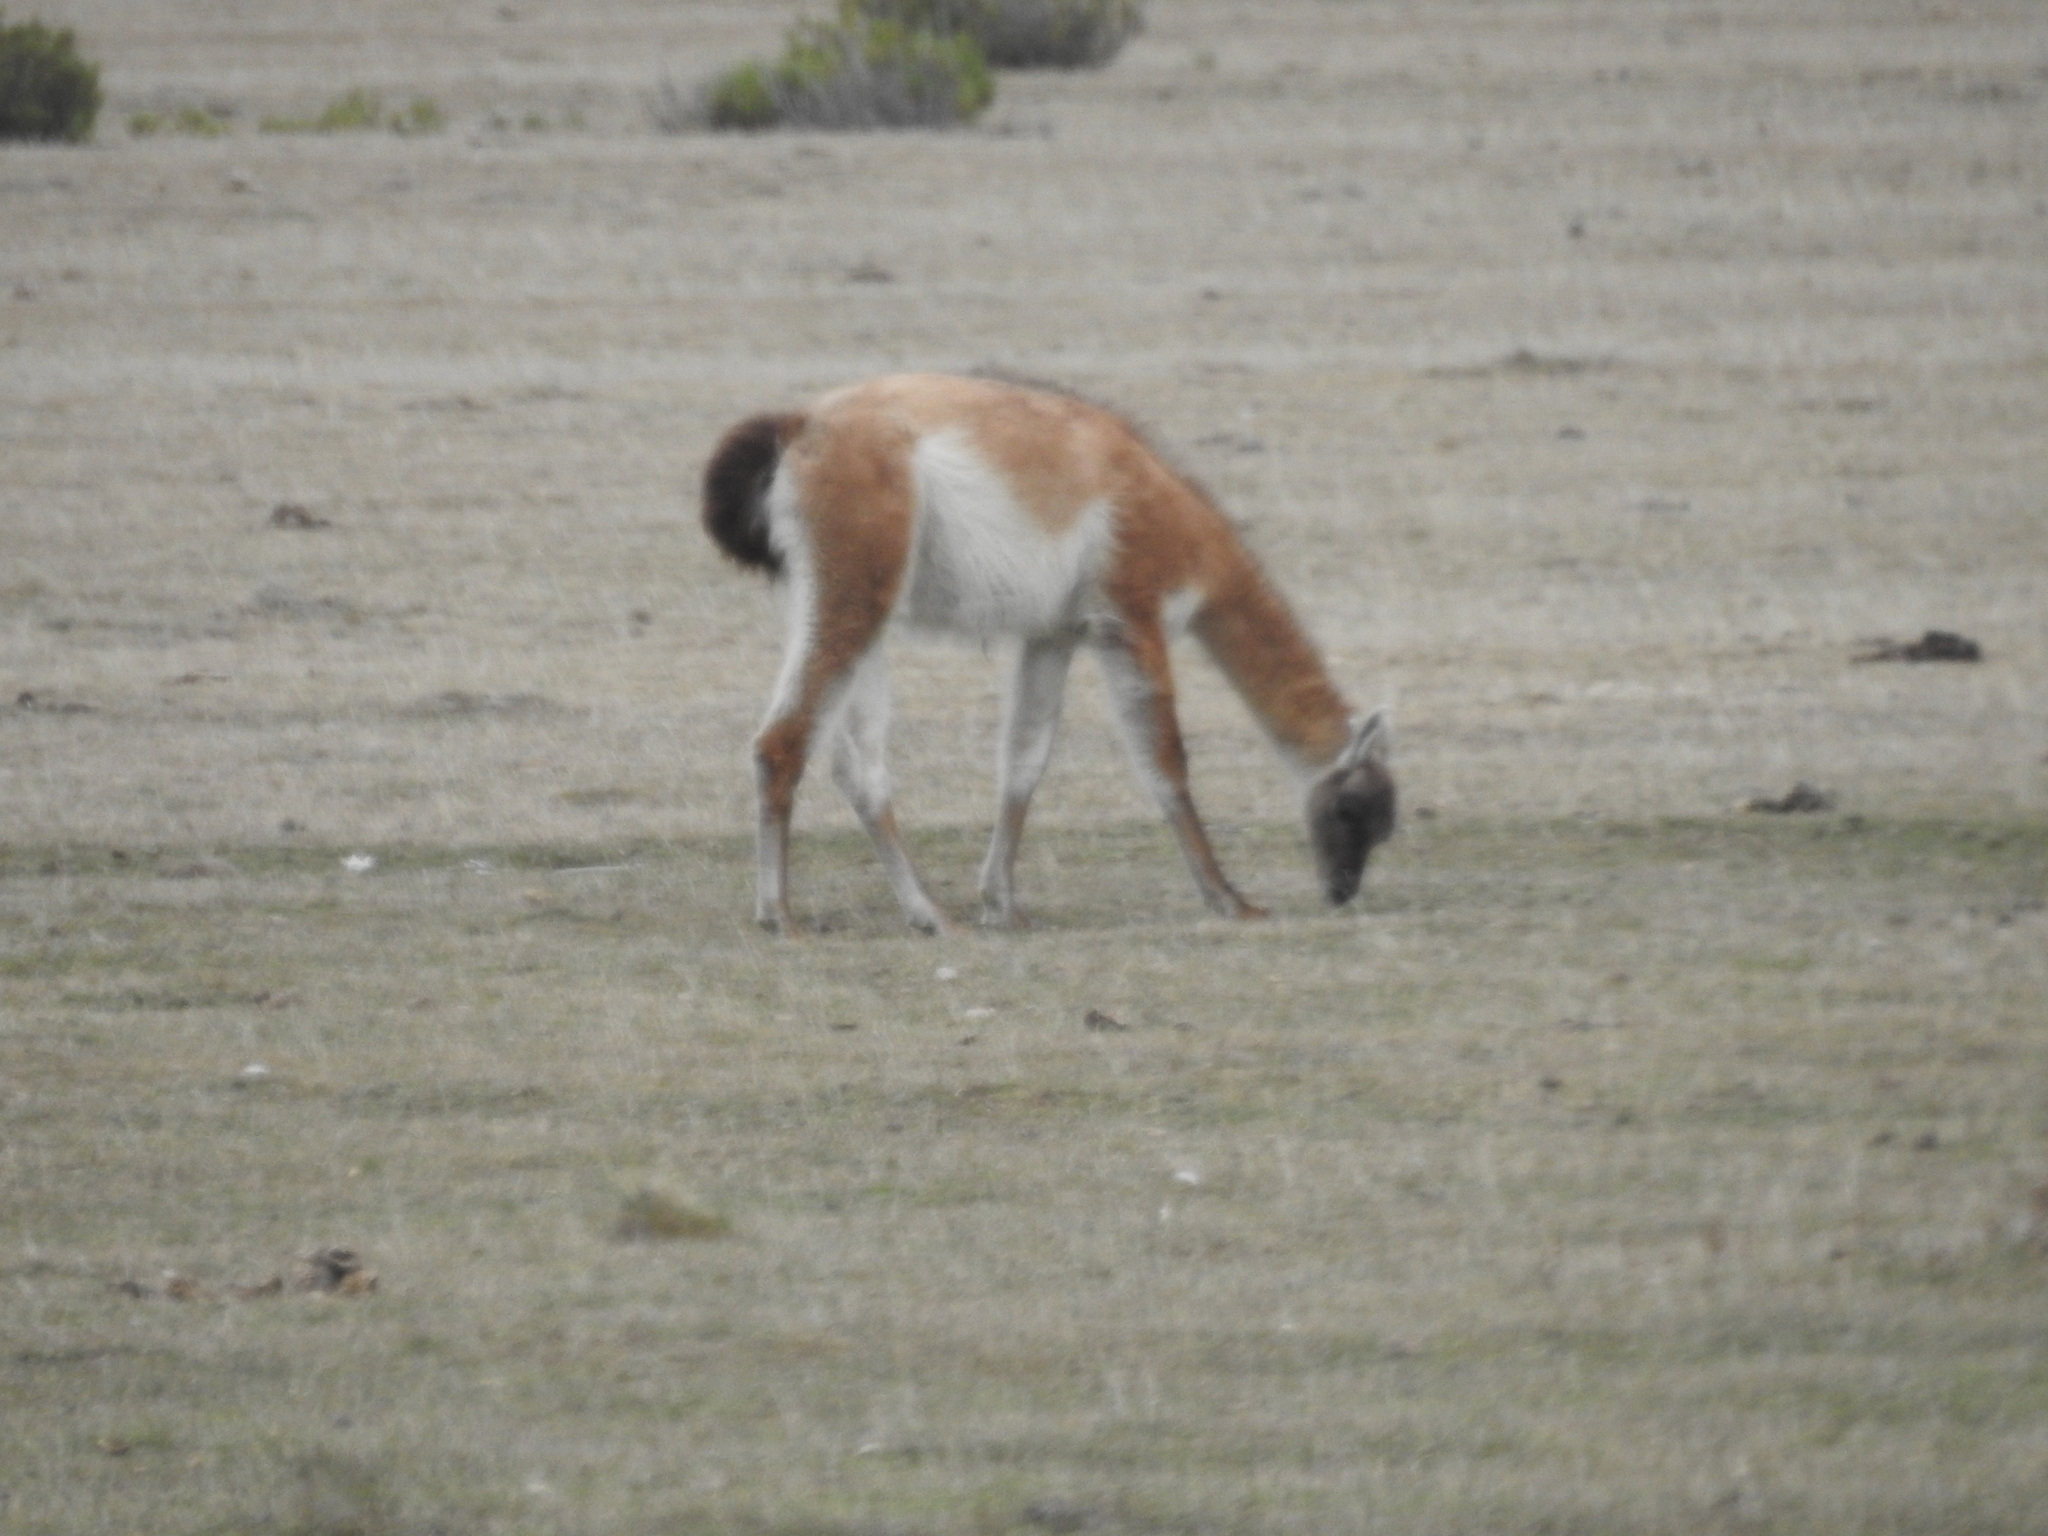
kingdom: Animalia
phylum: Chordata
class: Mammalia
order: Artiodactyla
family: Camelidae
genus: Lama
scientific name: Lama glama
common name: Llama
